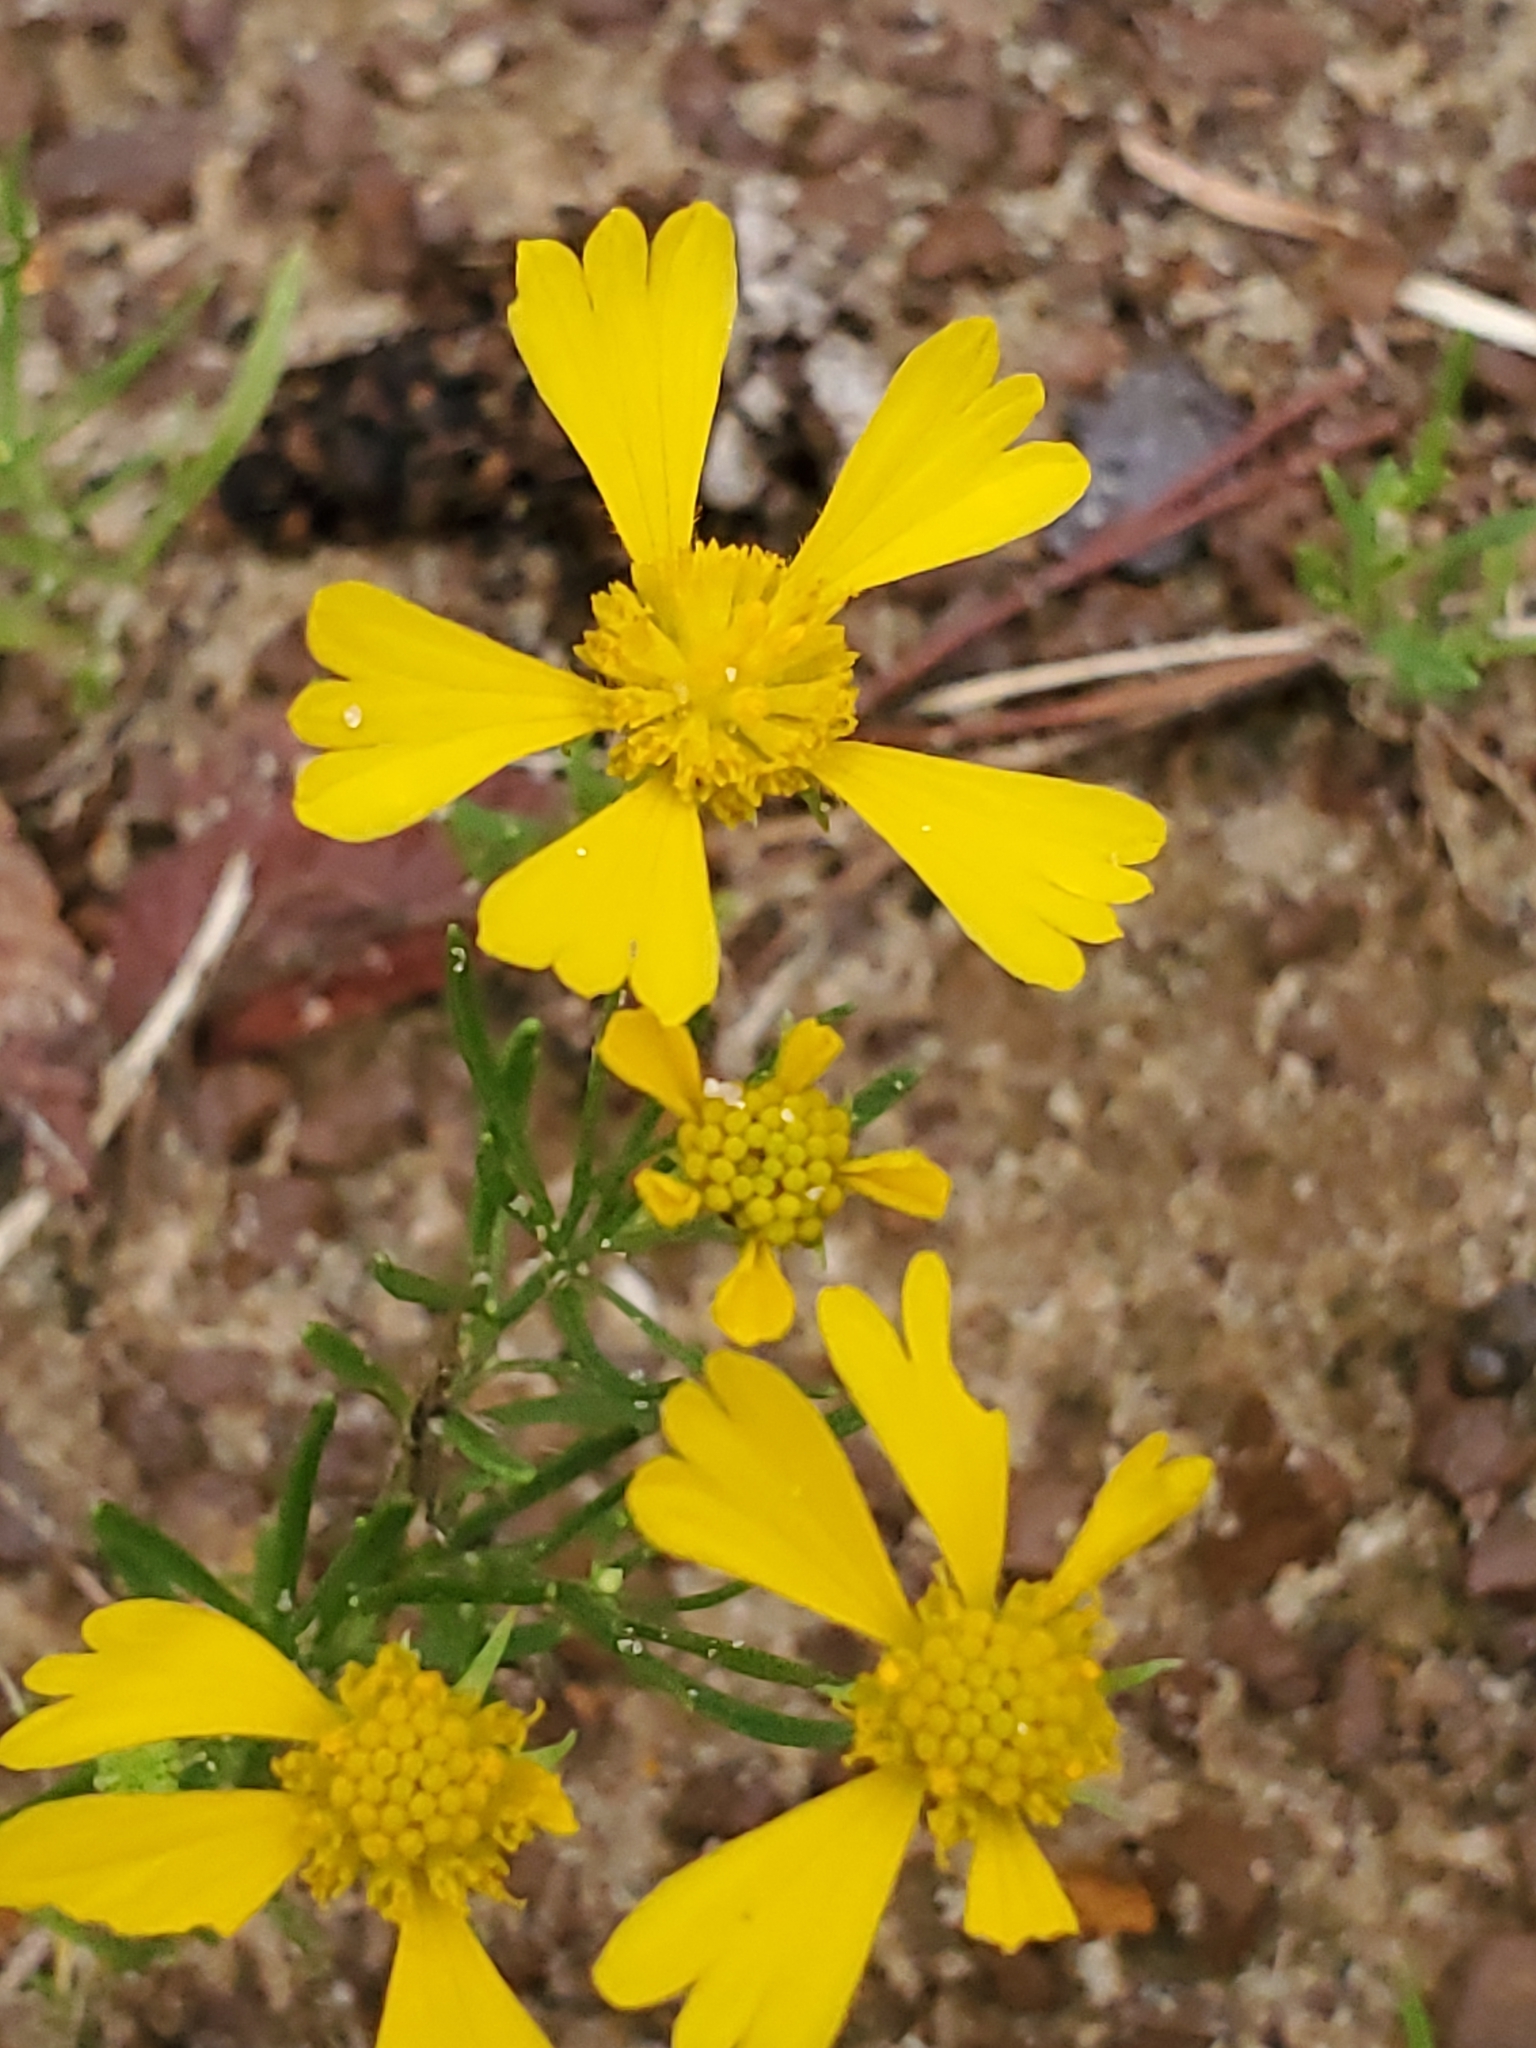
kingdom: Plantae
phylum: Tracheophyta
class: Magnoliopsida
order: Asterales
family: Asteraceae
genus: Helenium
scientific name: Helenium amarum
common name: Bitter sneezeweed
